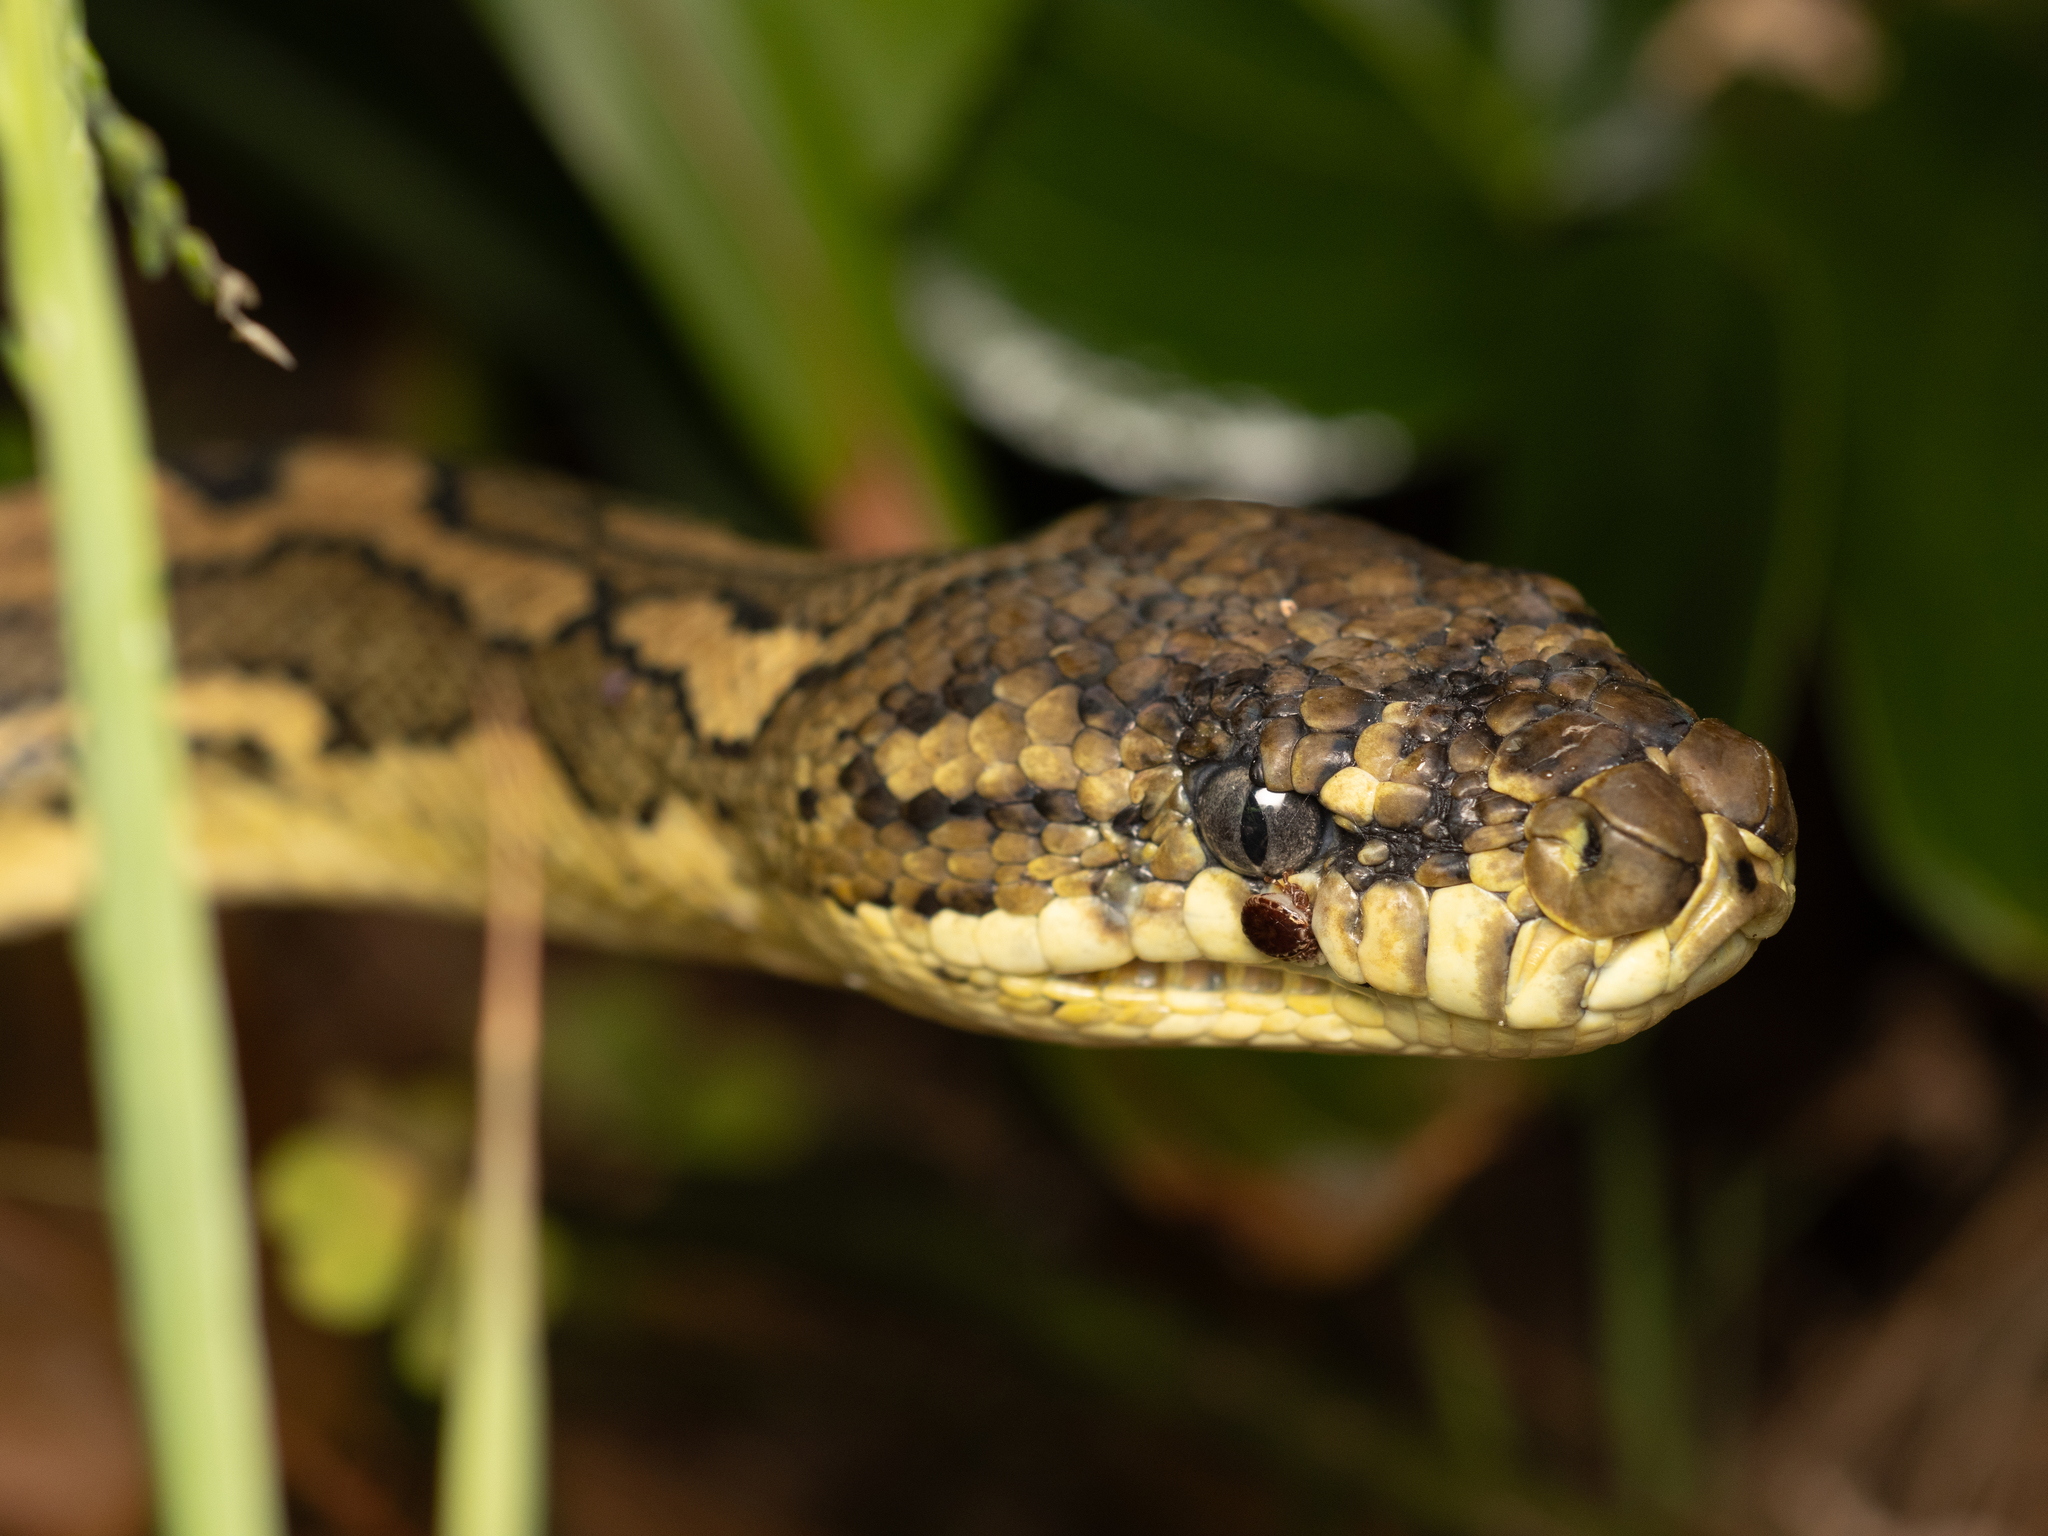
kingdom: Animalia
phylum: Chordata
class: Squamata
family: Pythonidae
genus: Morelia
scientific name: Morelia spilota
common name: Carpet python
